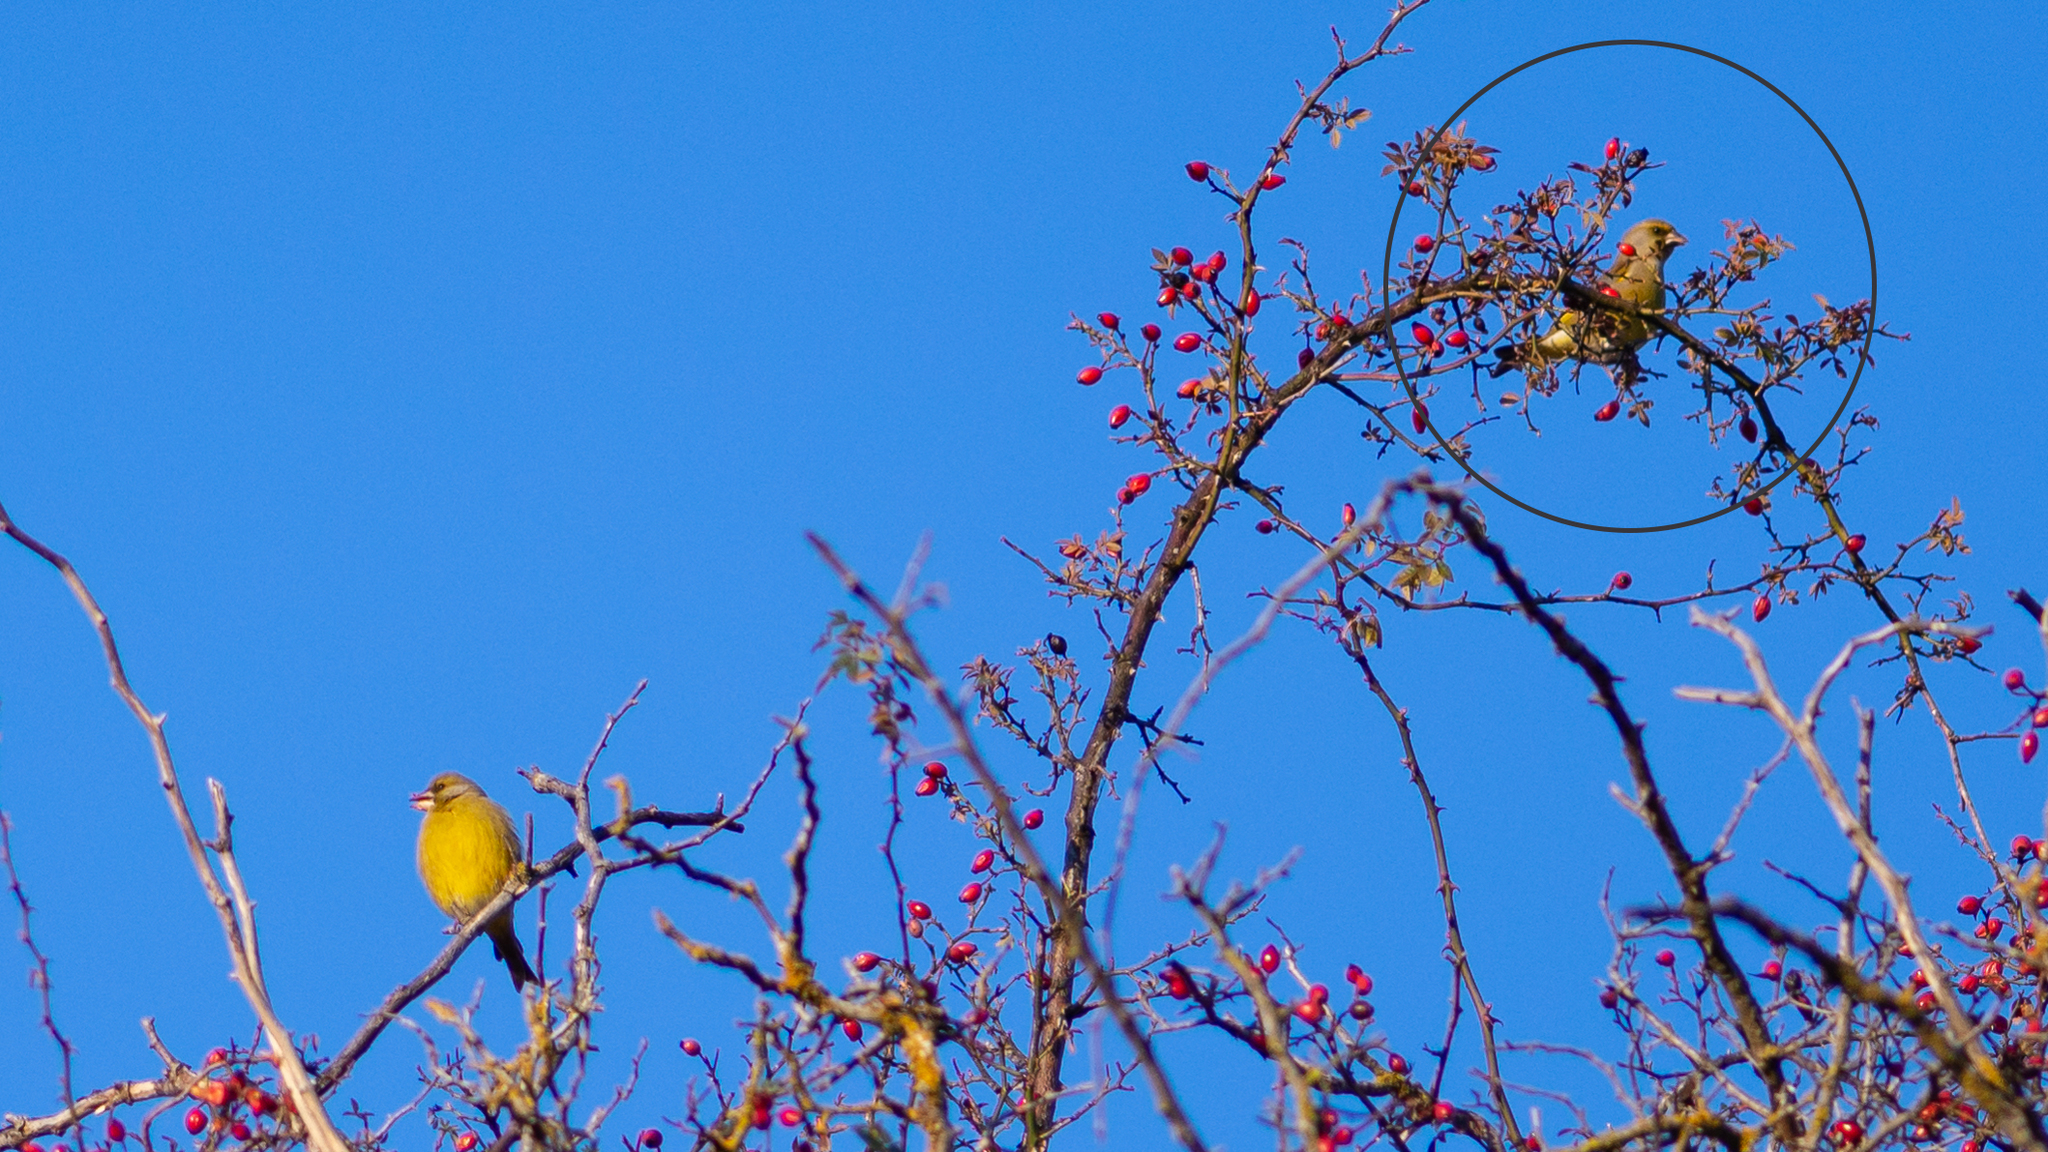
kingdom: Plantae
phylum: Tracheophyta
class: Liliopsida
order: Poales
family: Poaceae
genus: Chloris
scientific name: Chloris chloris
